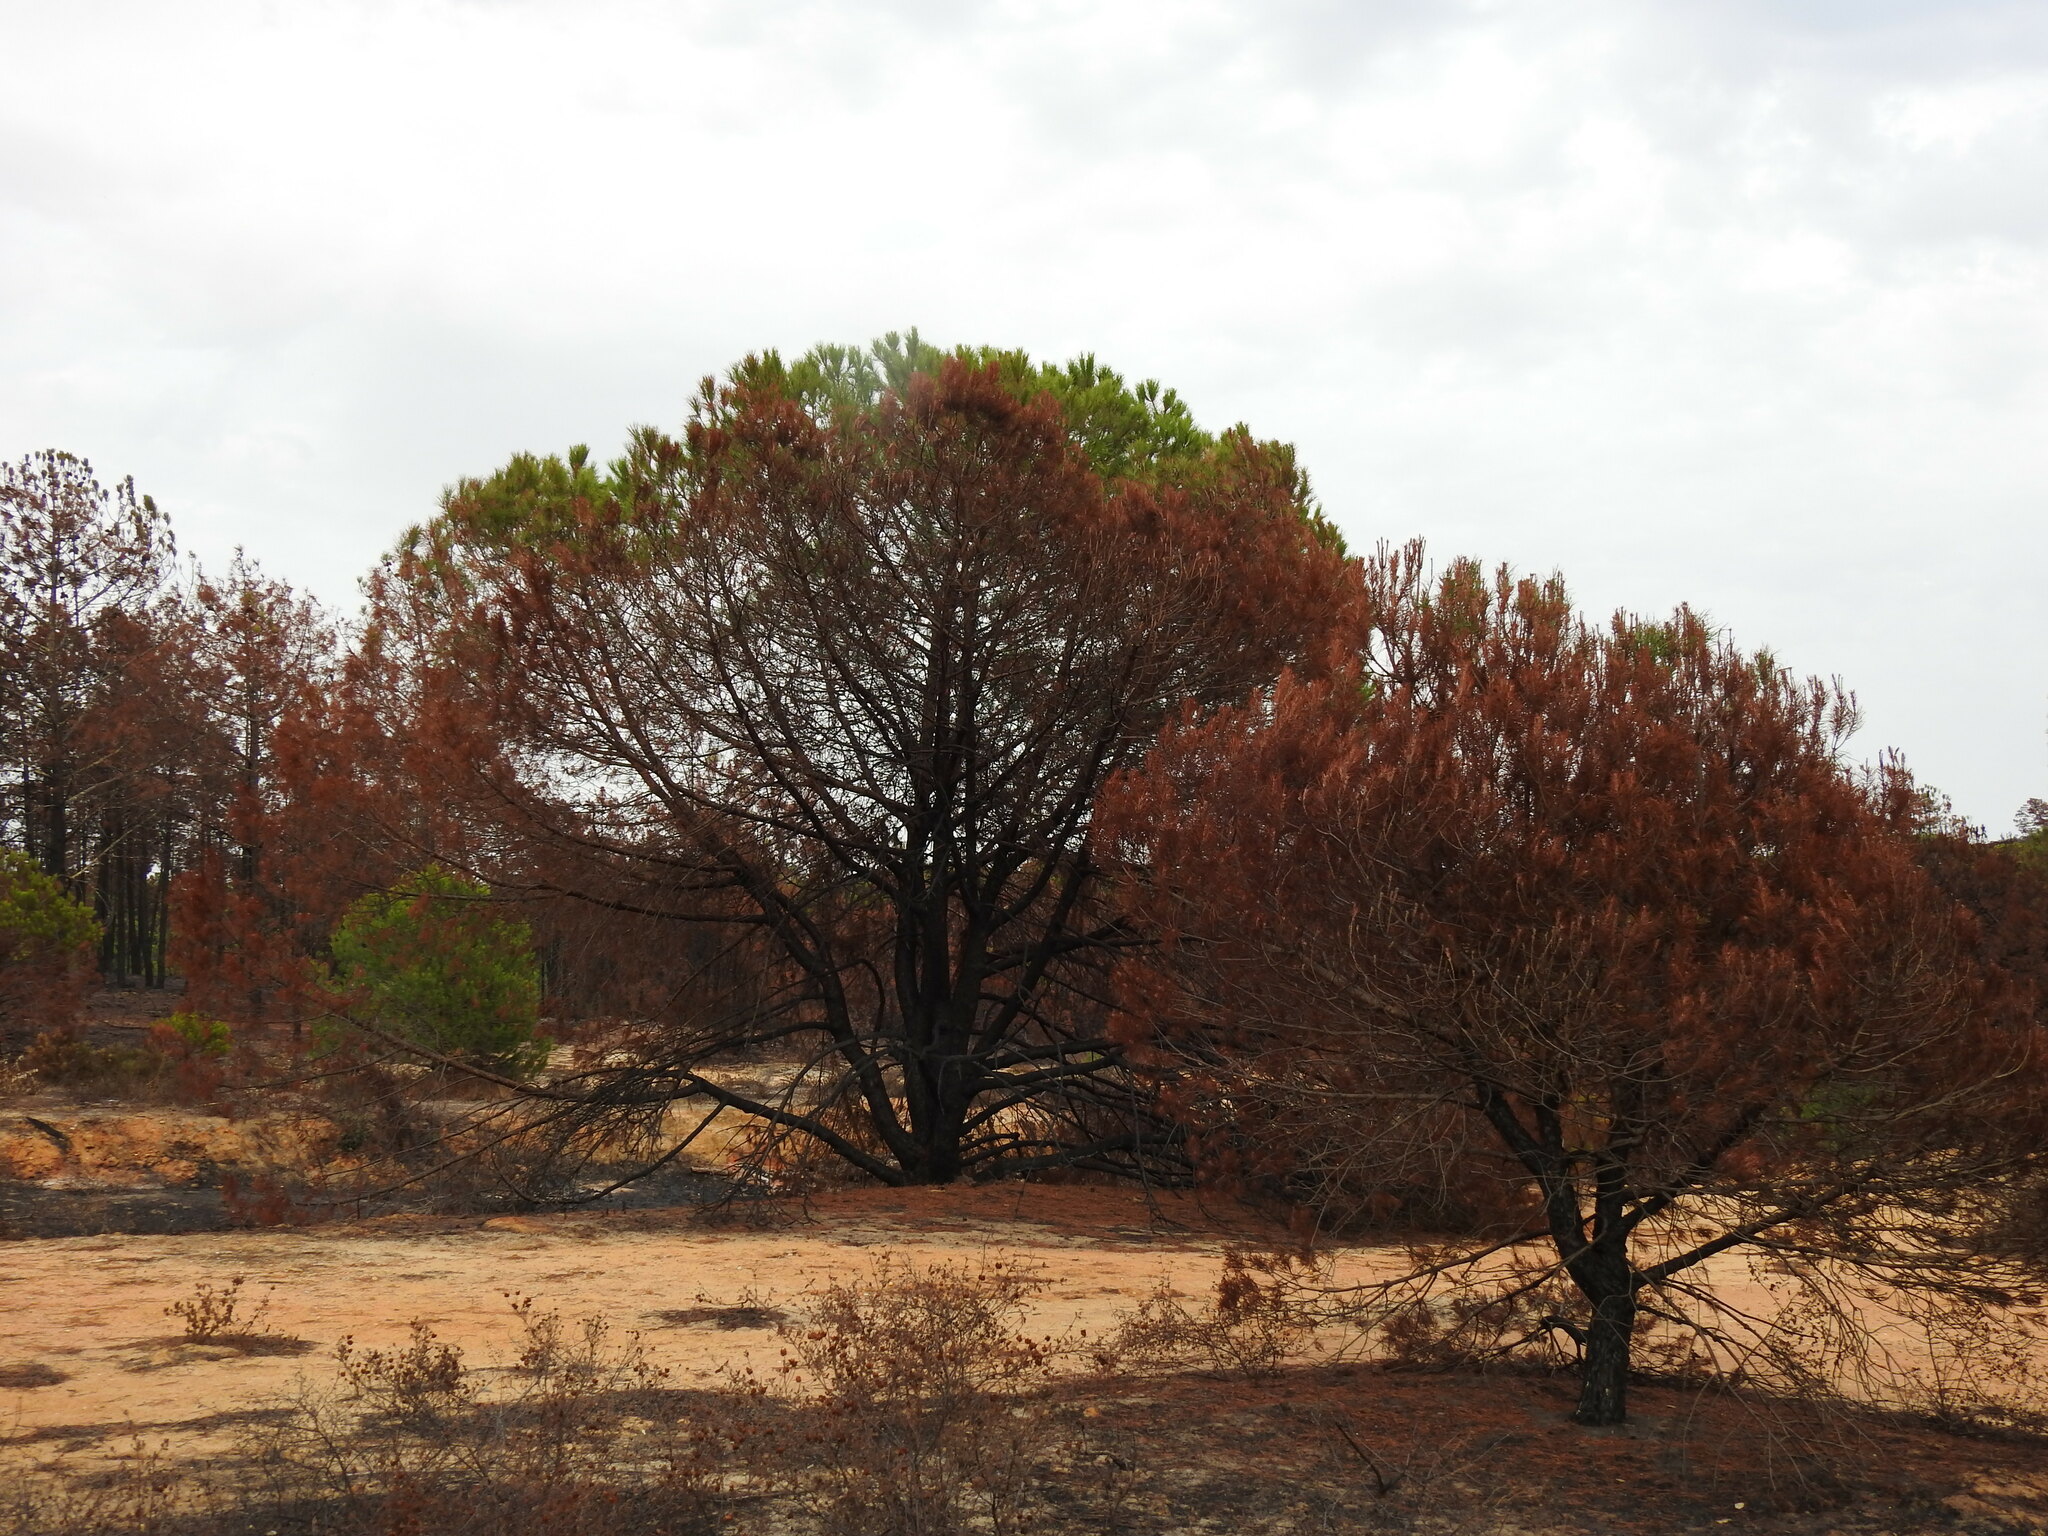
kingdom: Plantae
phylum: Tracheophyta
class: Pinopsida
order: Pinales
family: Pinaceae
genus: Pinus
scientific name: Pinus pinea
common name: Italian stone pine
